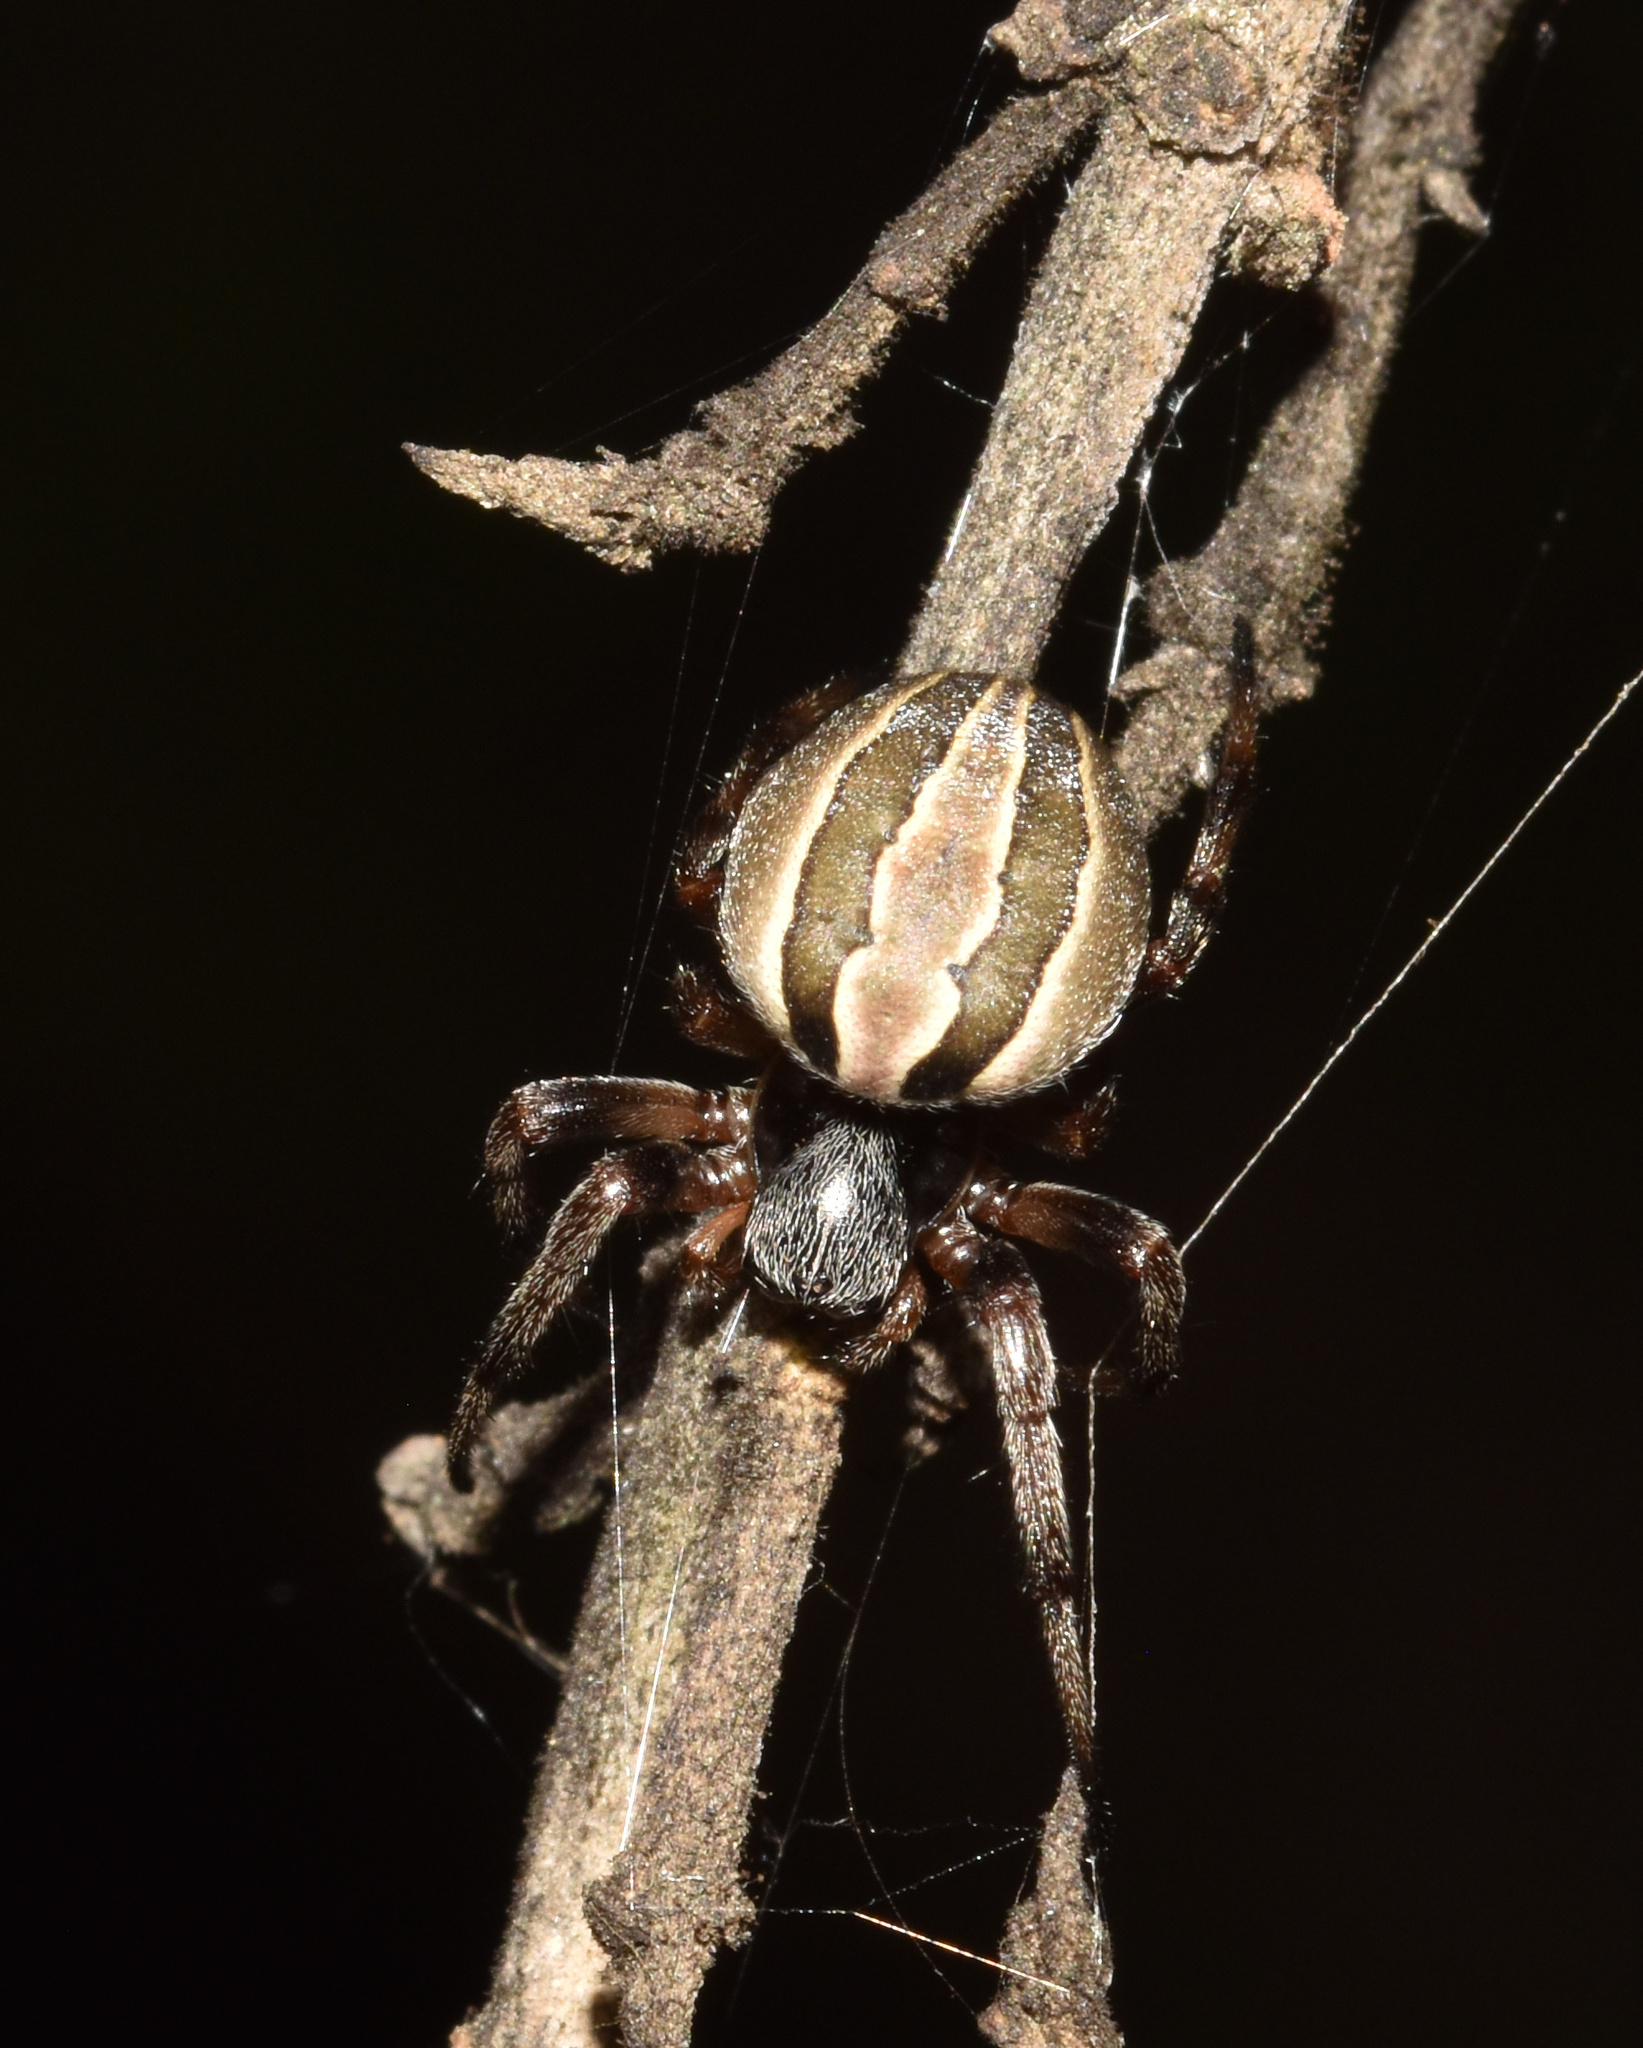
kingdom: Animalia
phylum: Arthropoda
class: Arachnida
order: Araneae
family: Araneidae
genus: Singa
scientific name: Singa albodorsata
